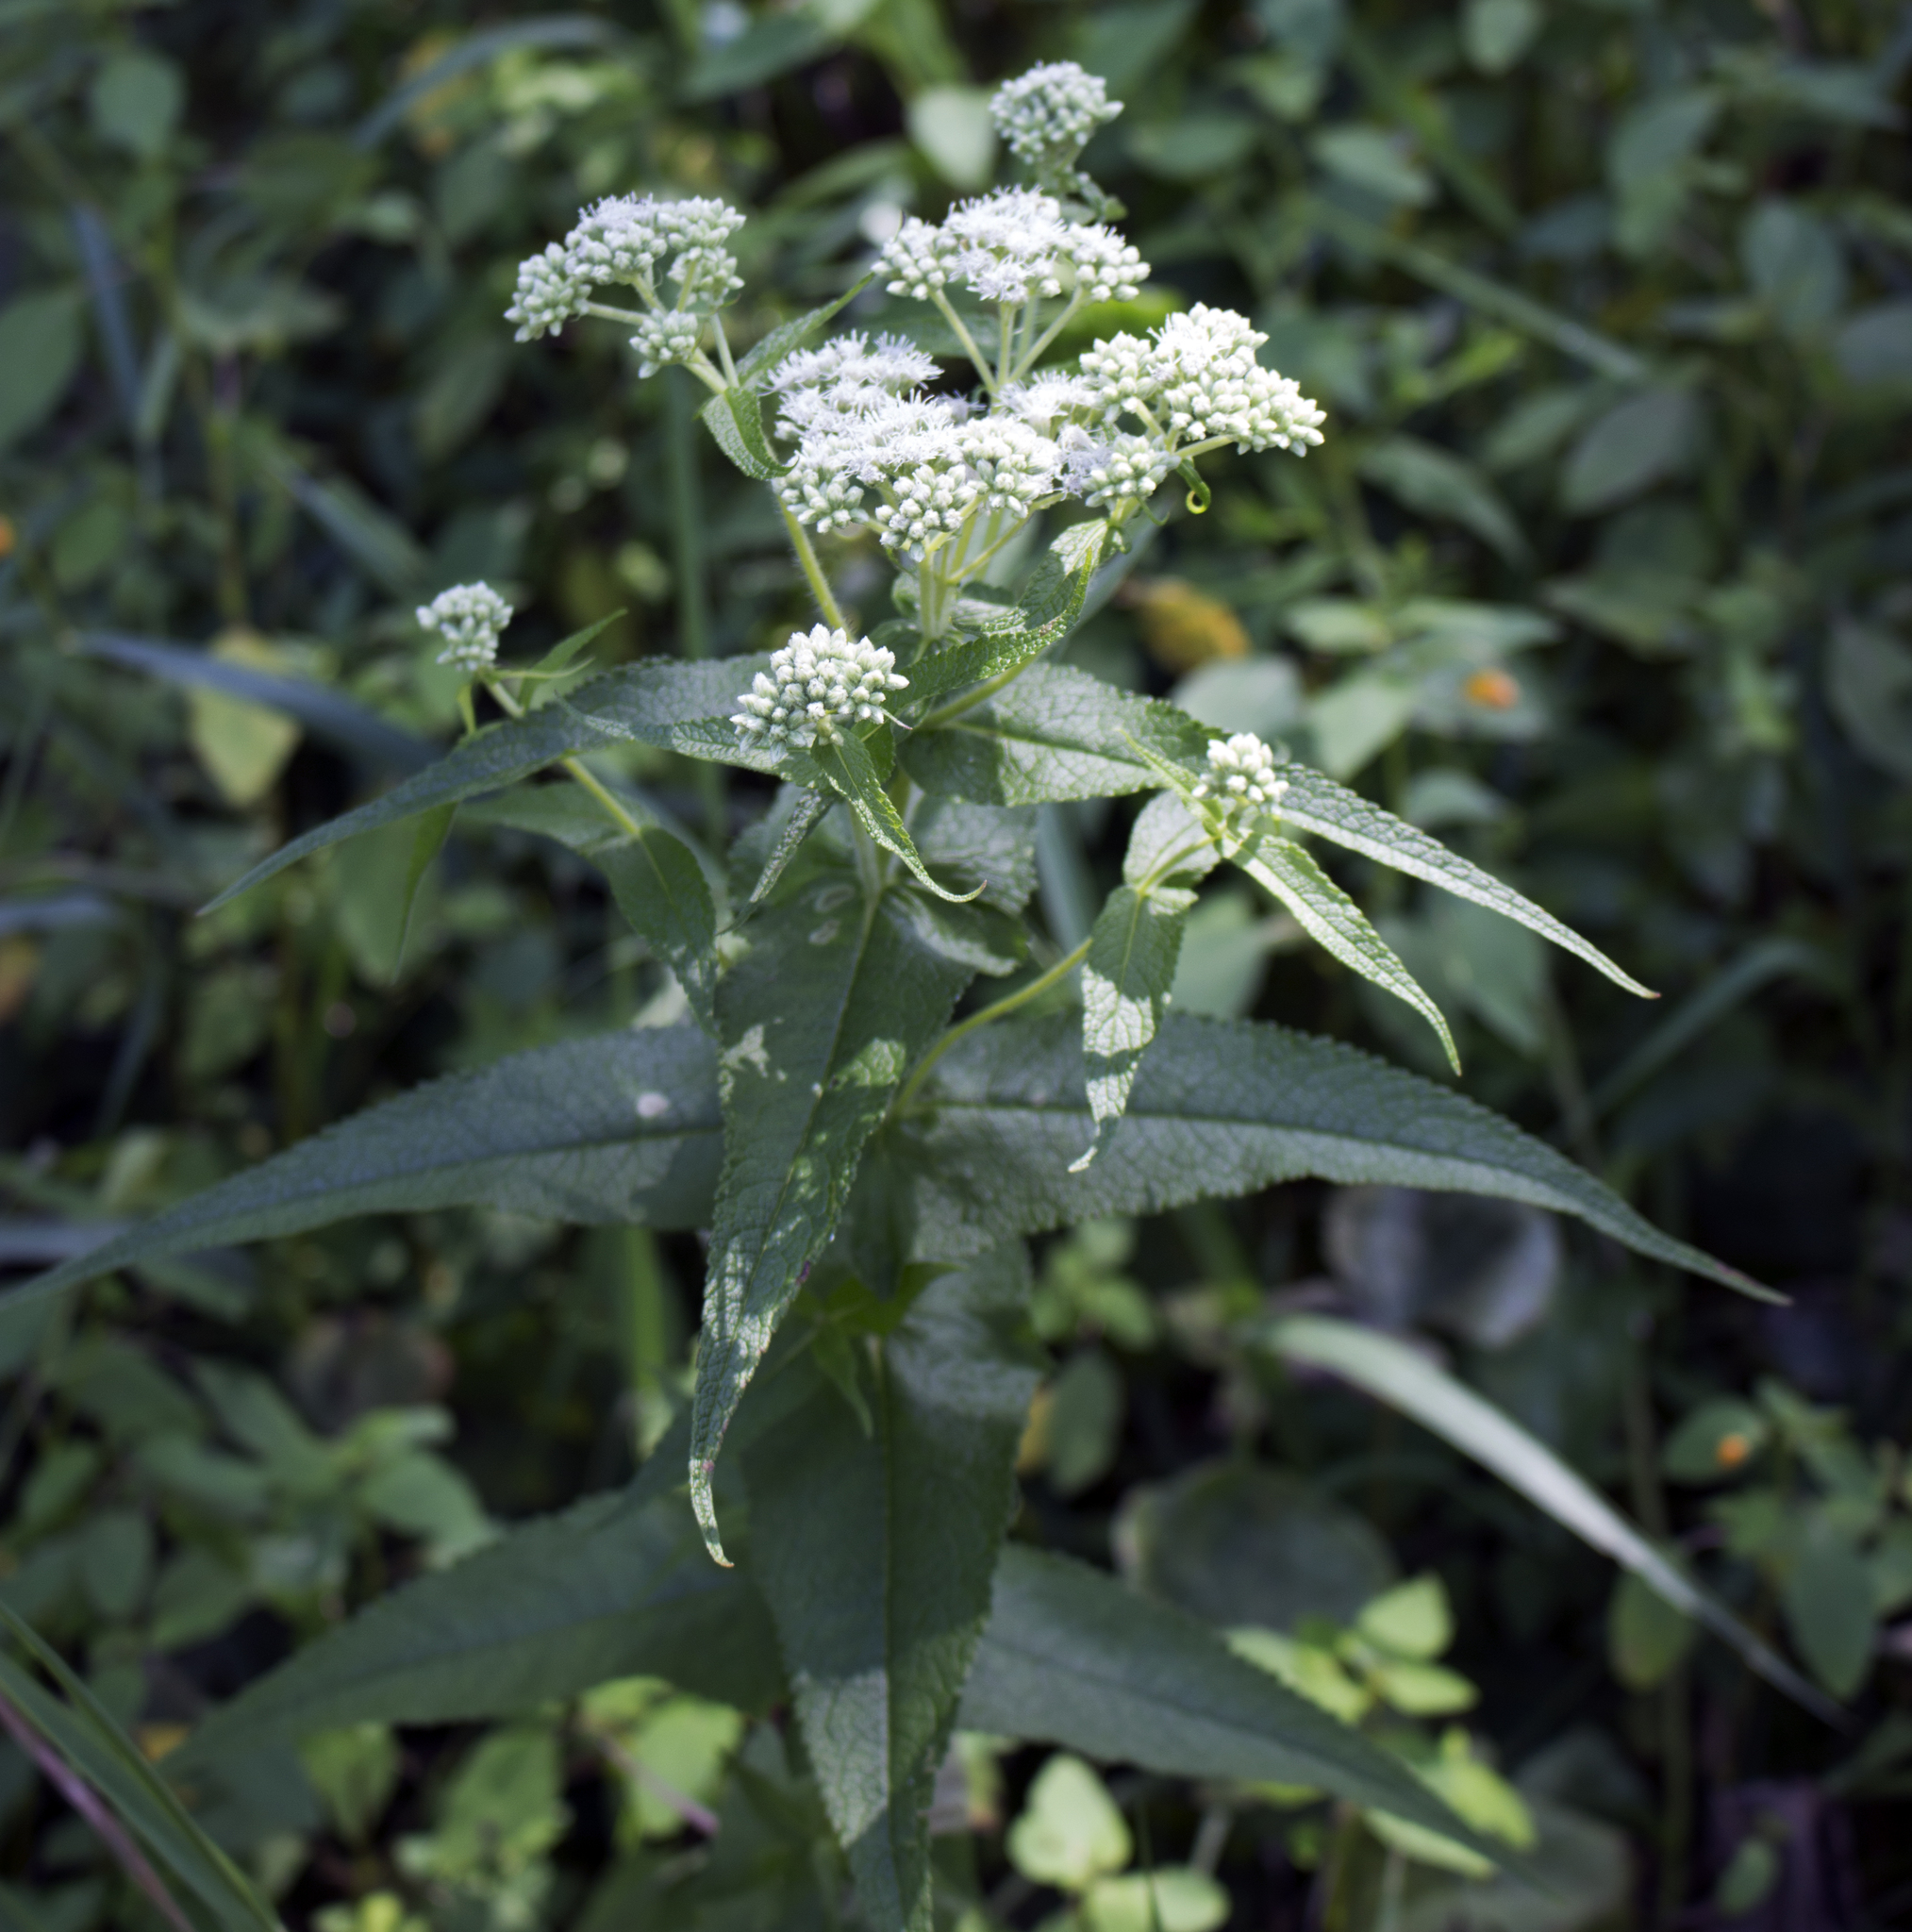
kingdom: Plantae
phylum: Tracheophyta
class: Magnoliopsida
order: Asterales
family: Asteraceae
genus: Eupatorium
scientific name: Eupatorium perfoliatum
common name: Boneset
